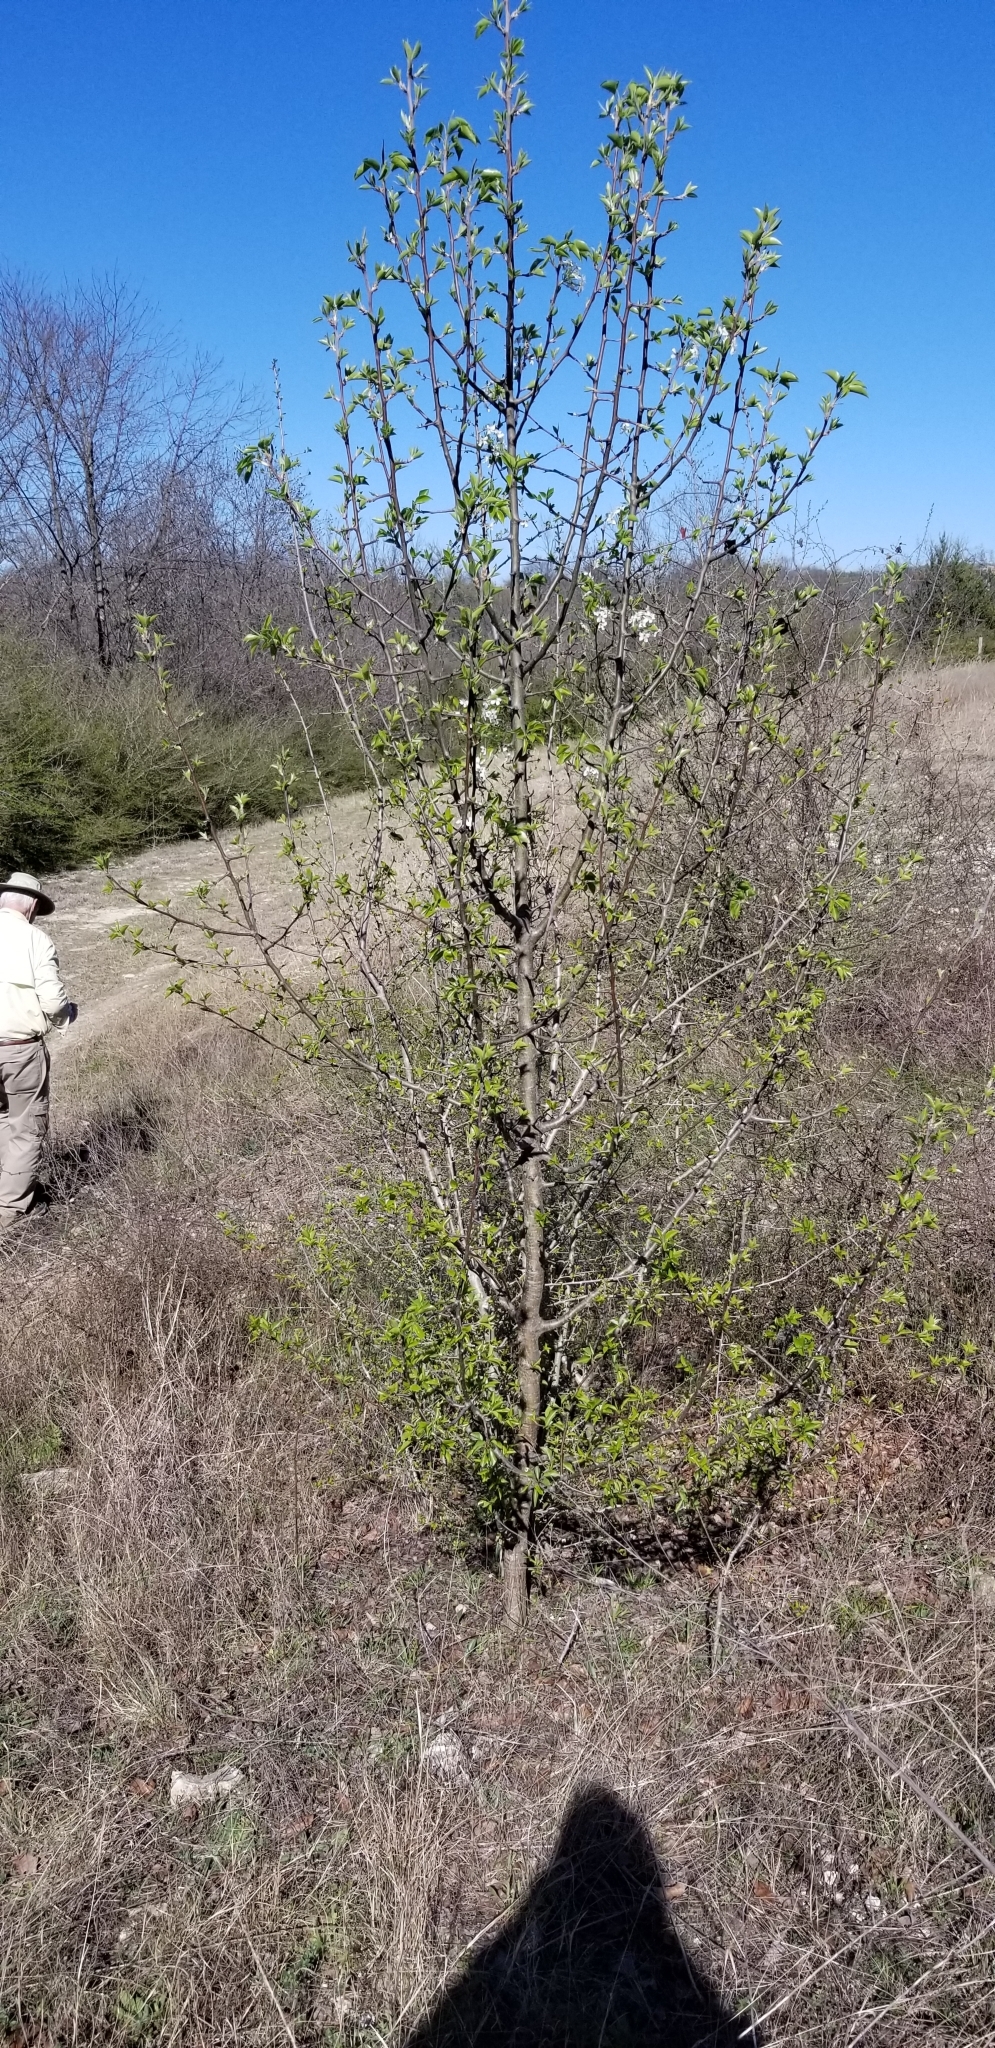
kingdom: Plantae
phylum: Tracheophyta
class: Magnoliopsida
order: Rosales
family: Rosaceae
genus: Pyrus
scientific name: Pyrus calleryana
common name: Callery pear
